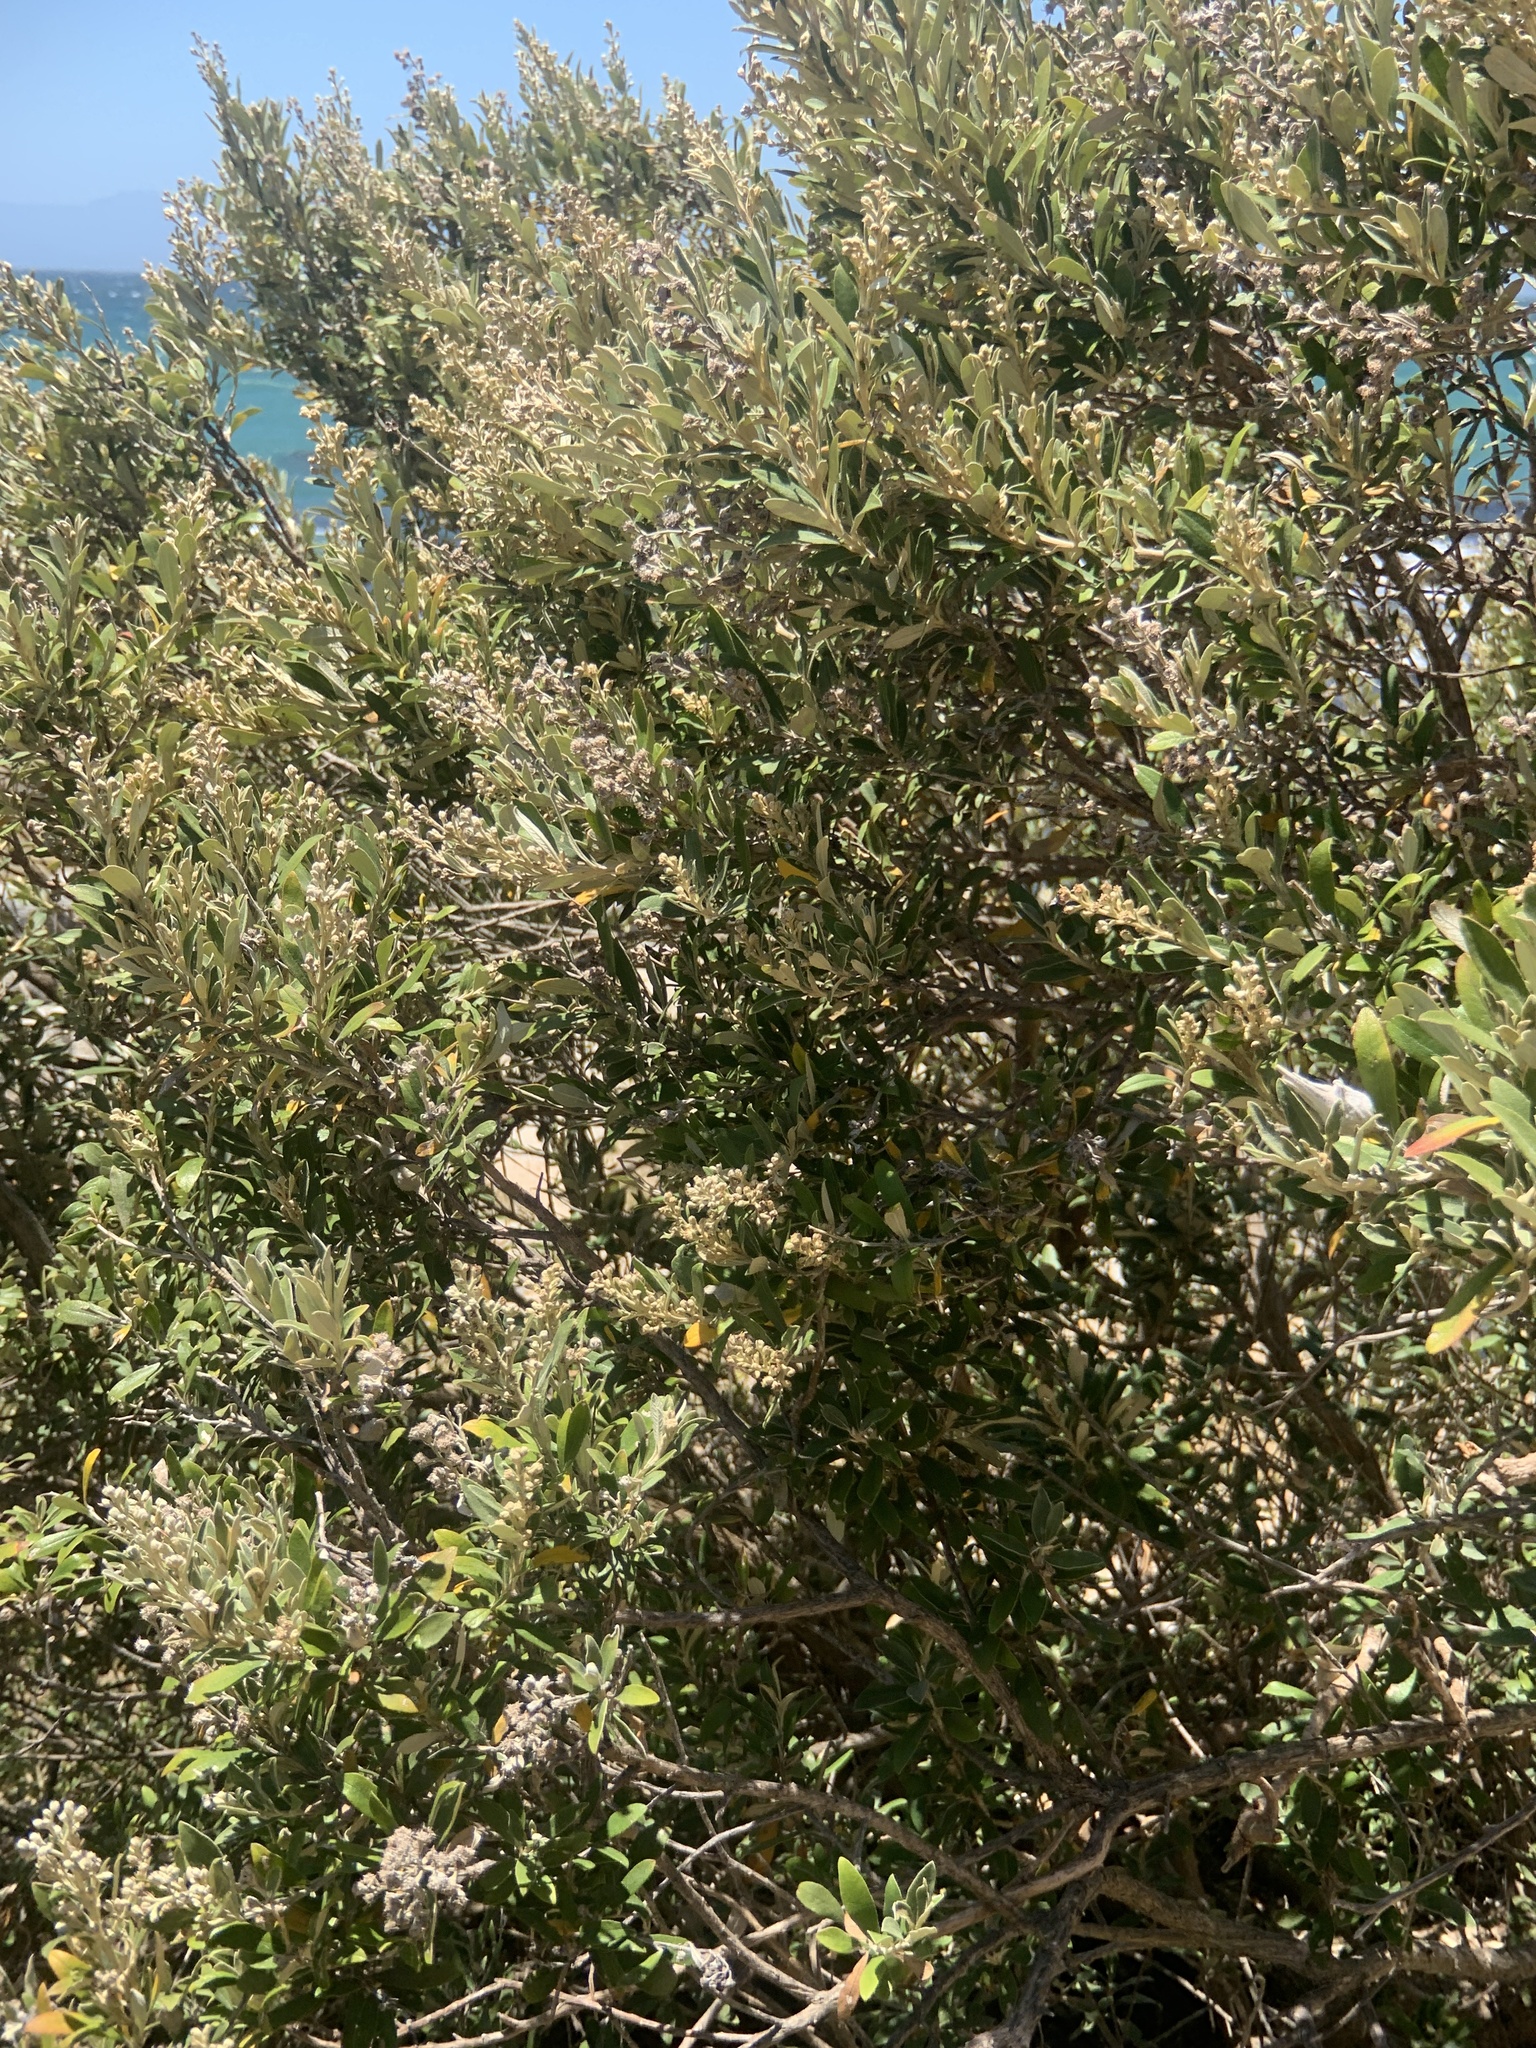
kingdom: Plantae
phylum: Tracheophyta
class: Magnoliopsida
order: Asterales
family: Asteraceae
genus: Tarchonanthus
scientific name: Tarchonanthus littoralis
